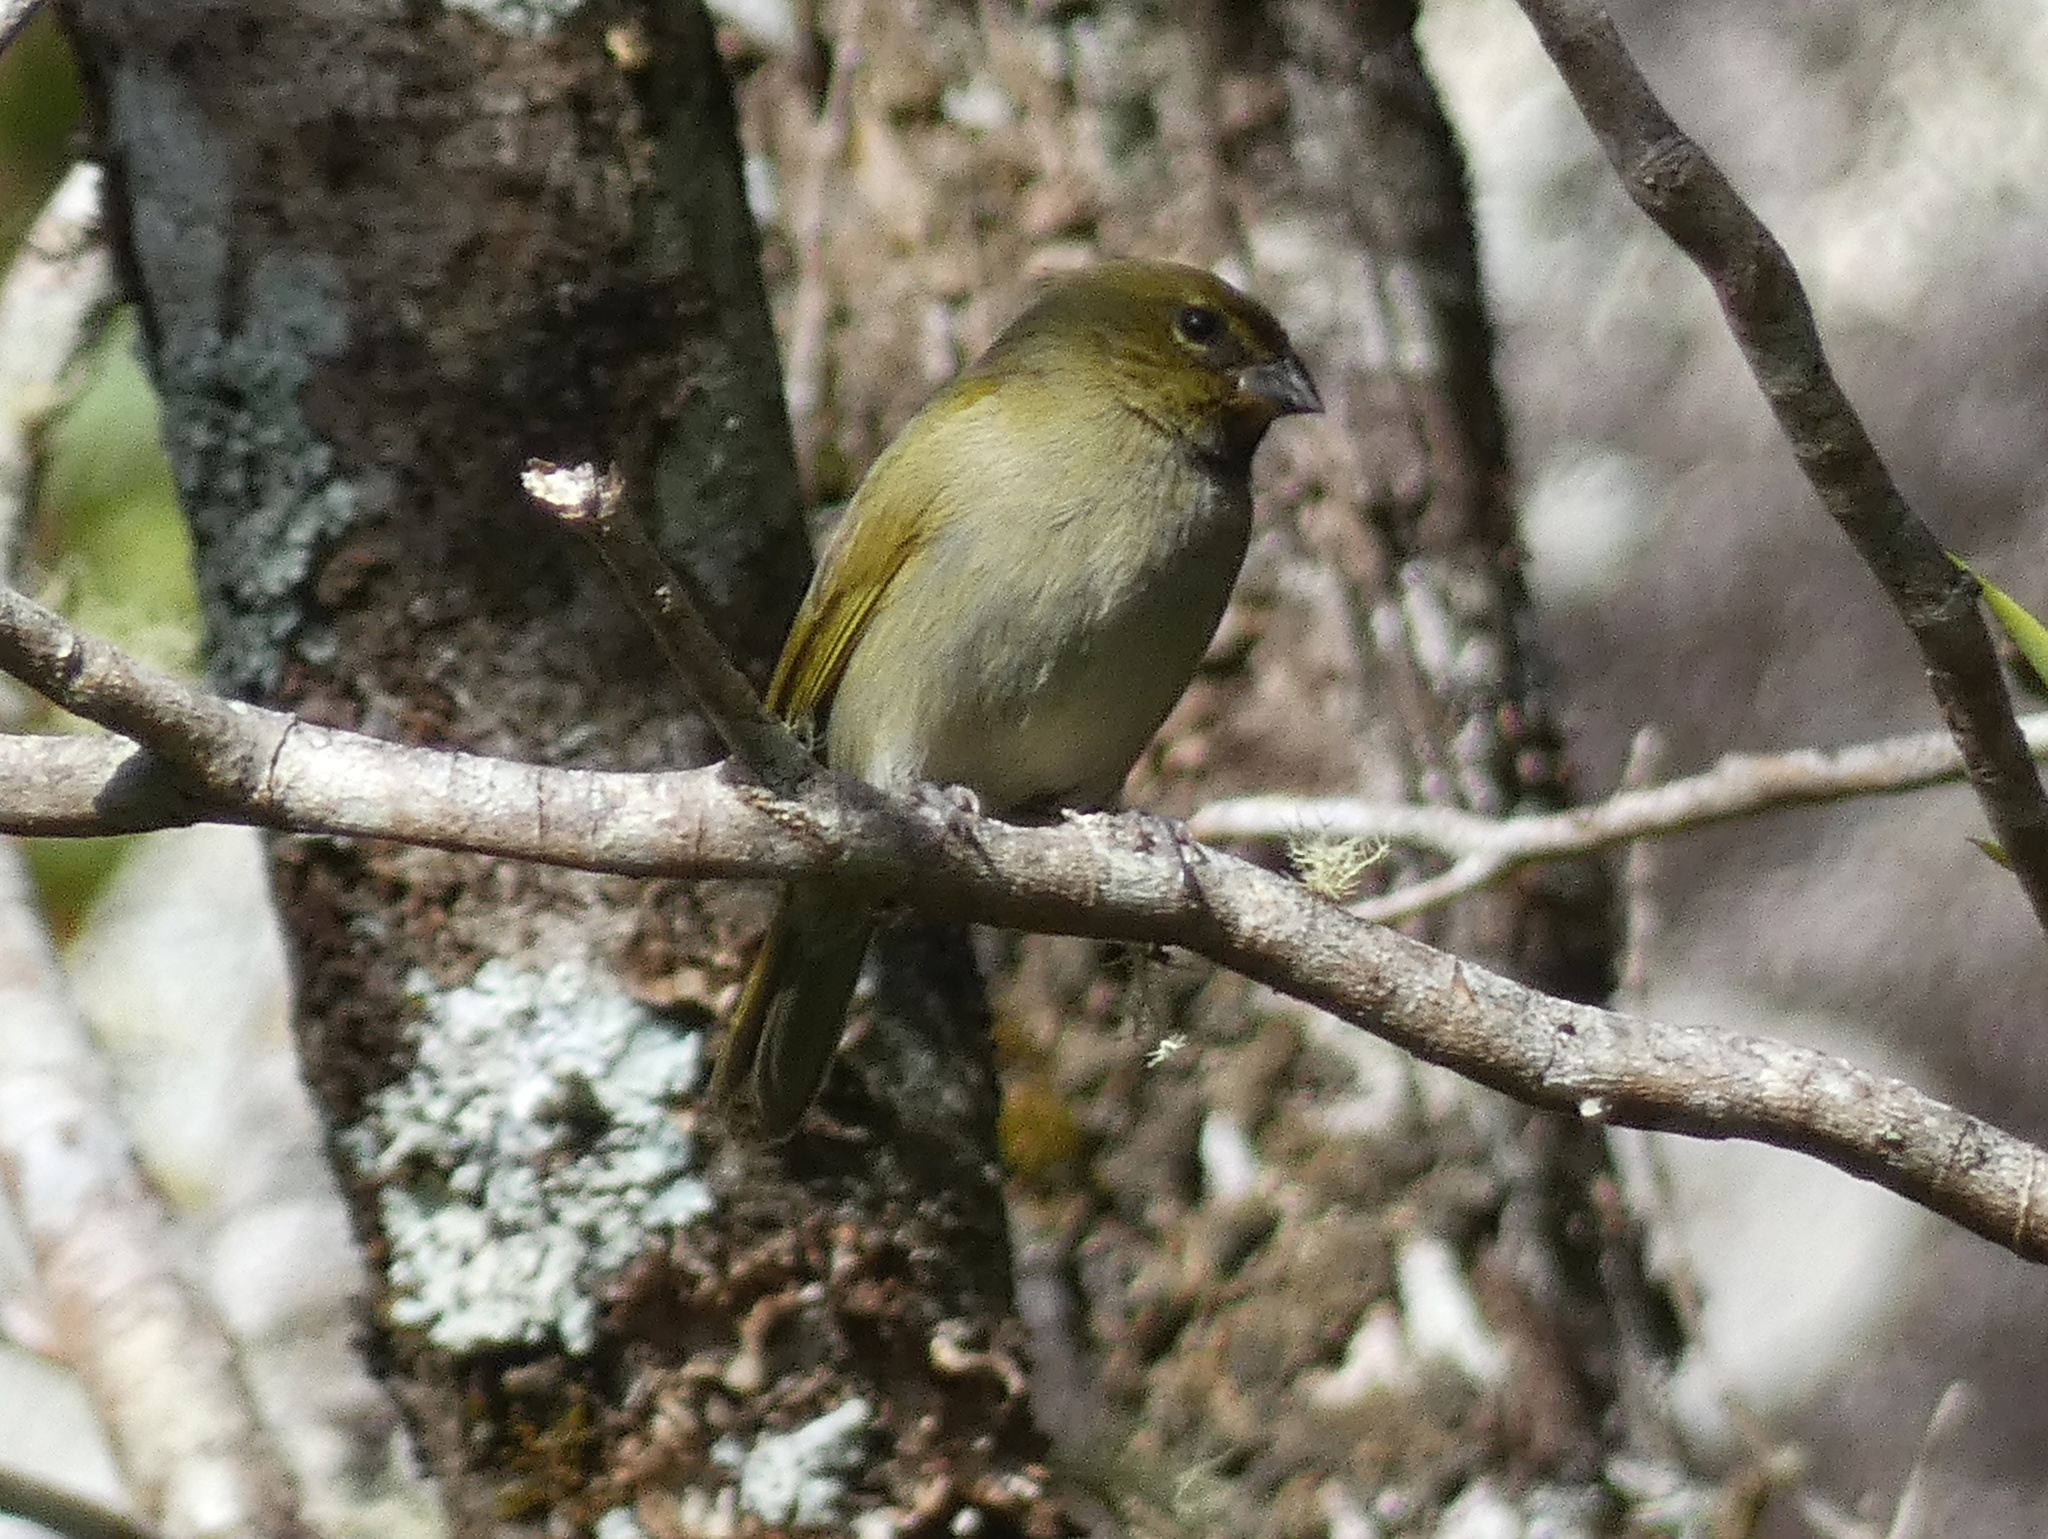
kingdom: Animalia
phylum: Chordata
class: Aves
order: Passeriformes
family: Thraupidae
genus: Tiaris
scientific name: Tiaris olivaceus
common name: Yellow-faced grassquit
